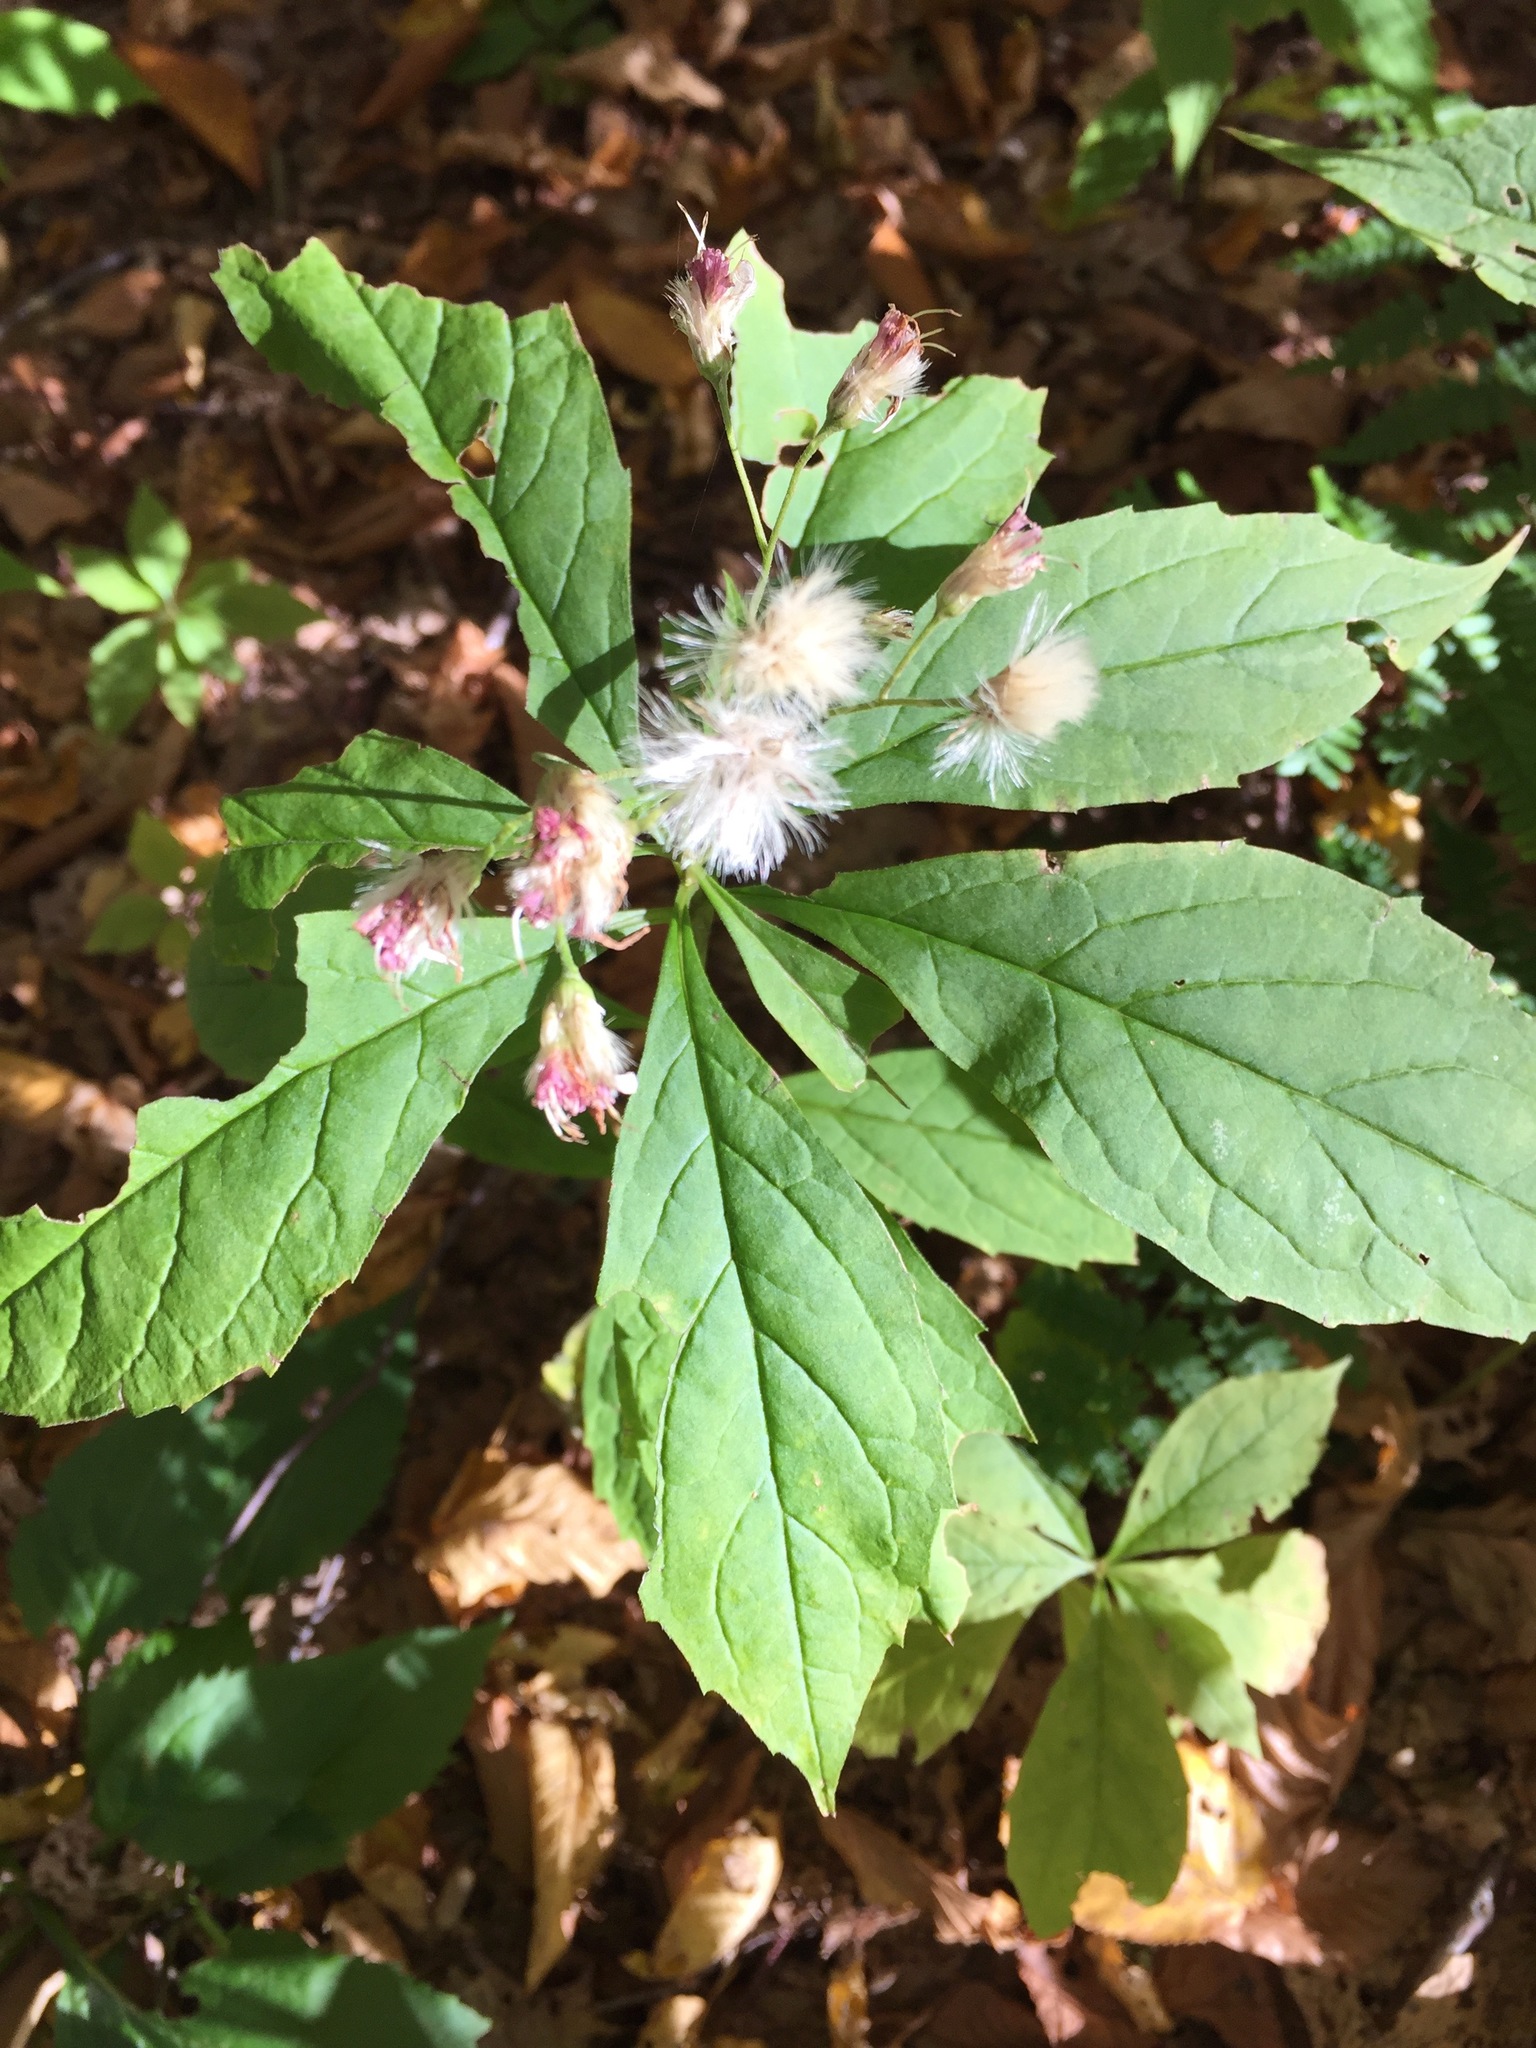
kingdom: Plantae
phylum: Tracheophyta
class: Magnoliopsida
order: Asterales
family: Asteraceae
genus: Oclemena
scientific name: Oclemena acuminata
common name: Mountain aster
